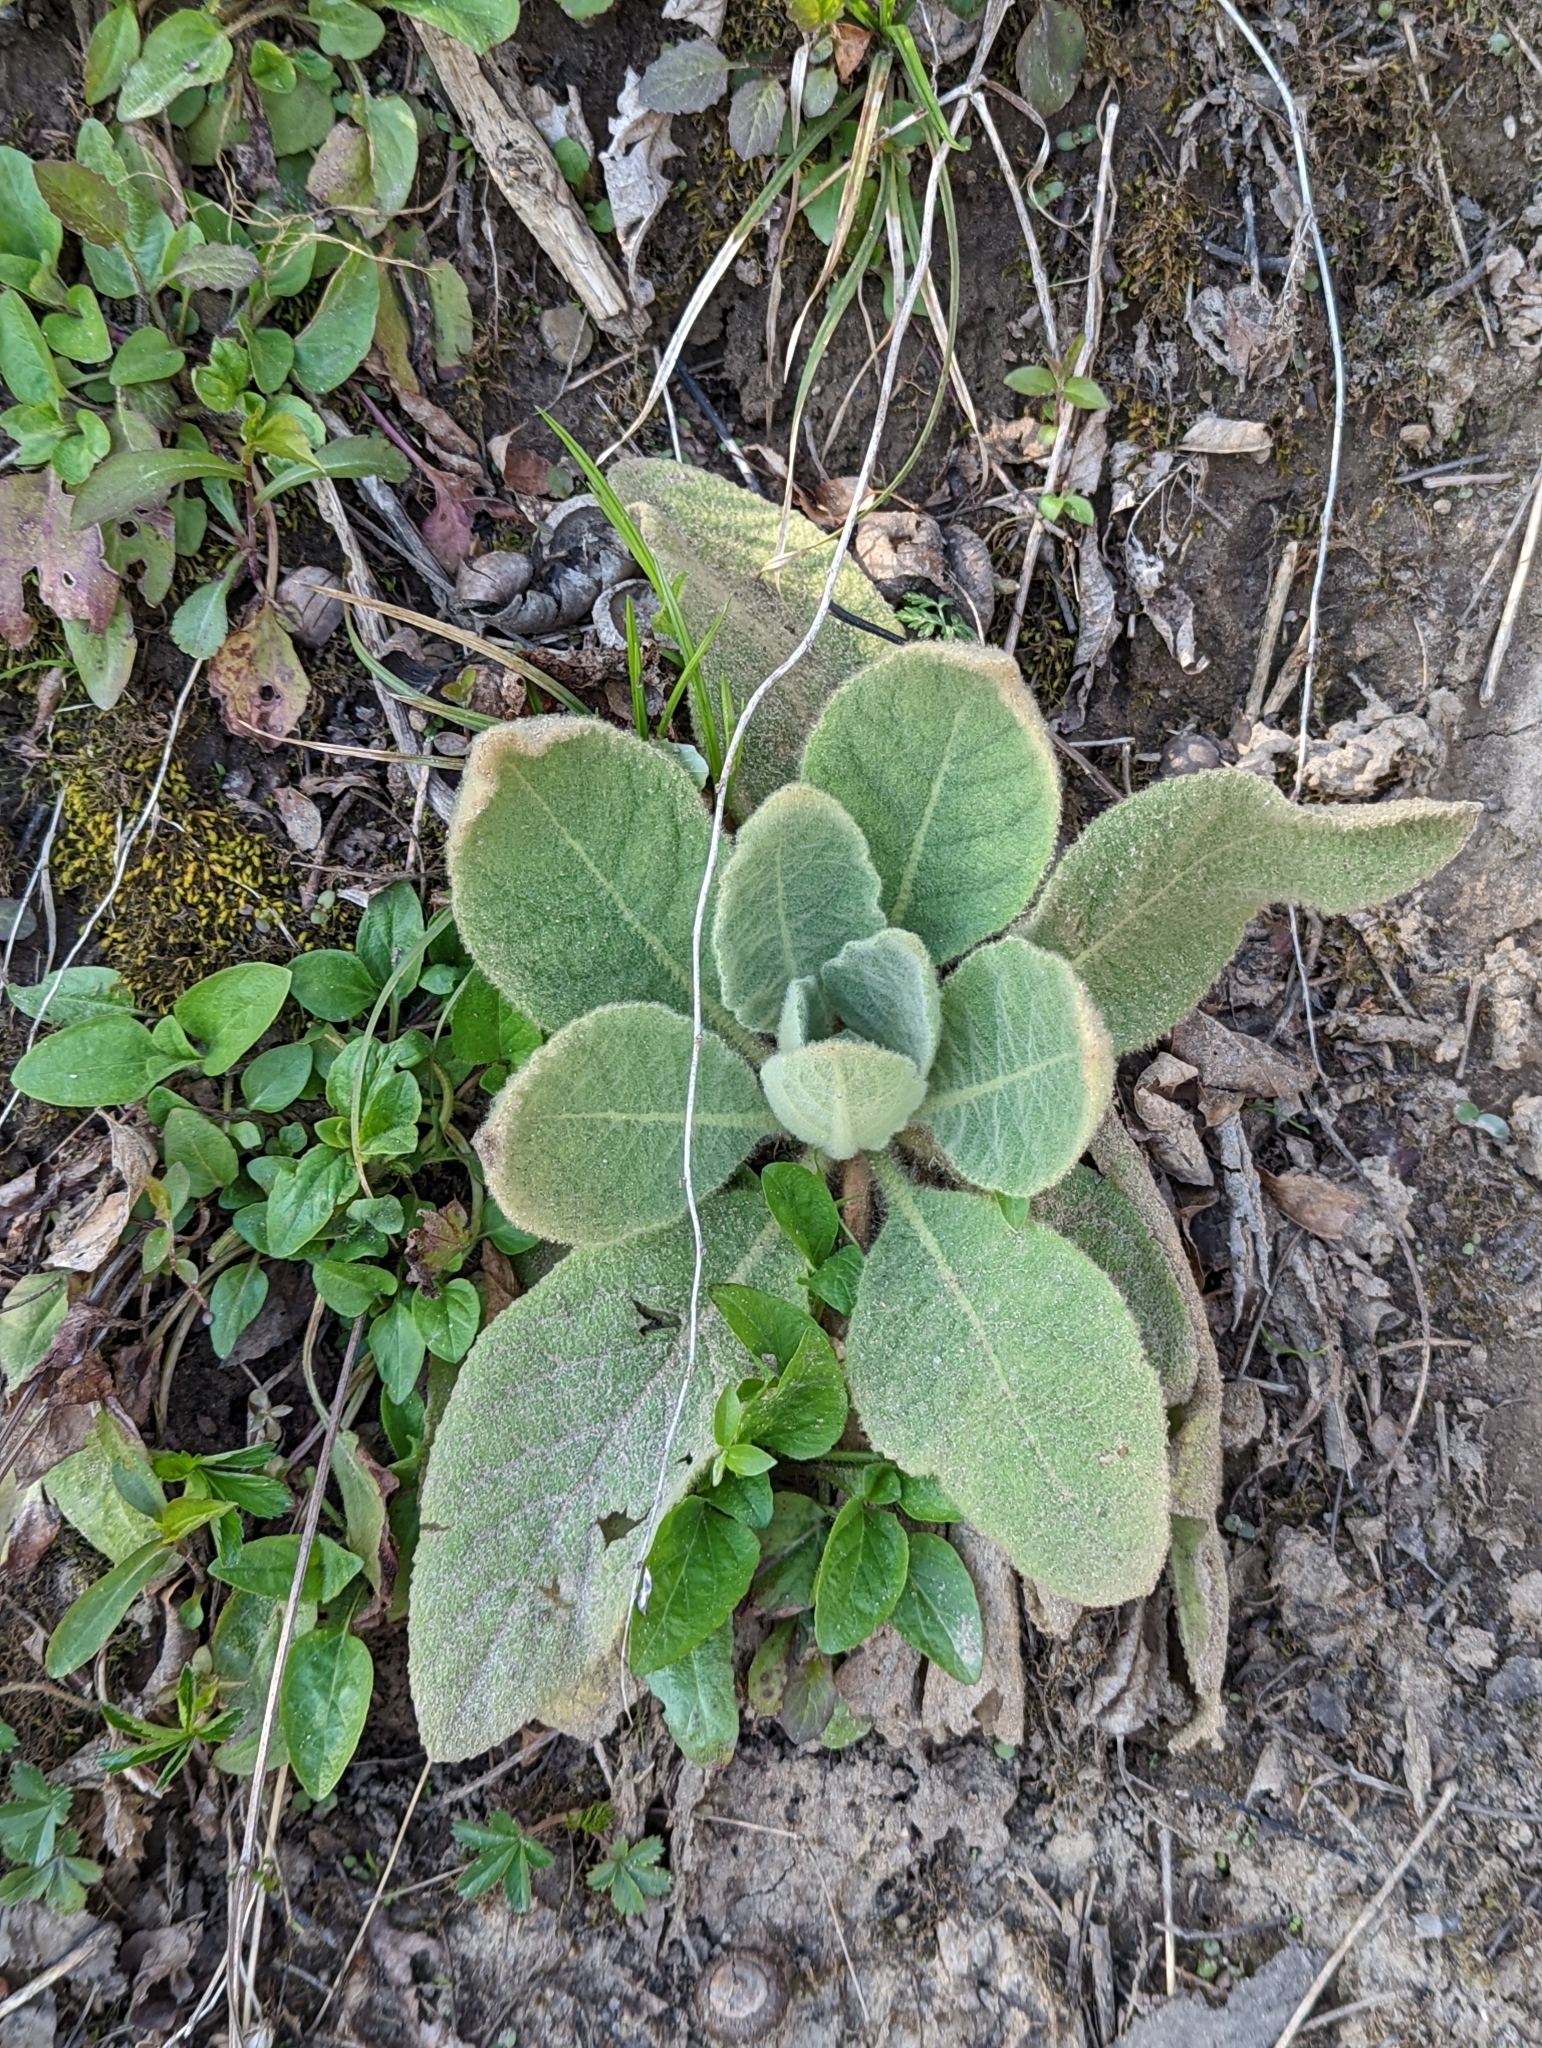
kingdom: Plantae
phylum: Tracheophyta
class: Magnoliopsida
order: Lamiales
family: Scrophulariaceae
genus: Verbascum
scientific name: Verbascum thapsus
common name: Common mullein
